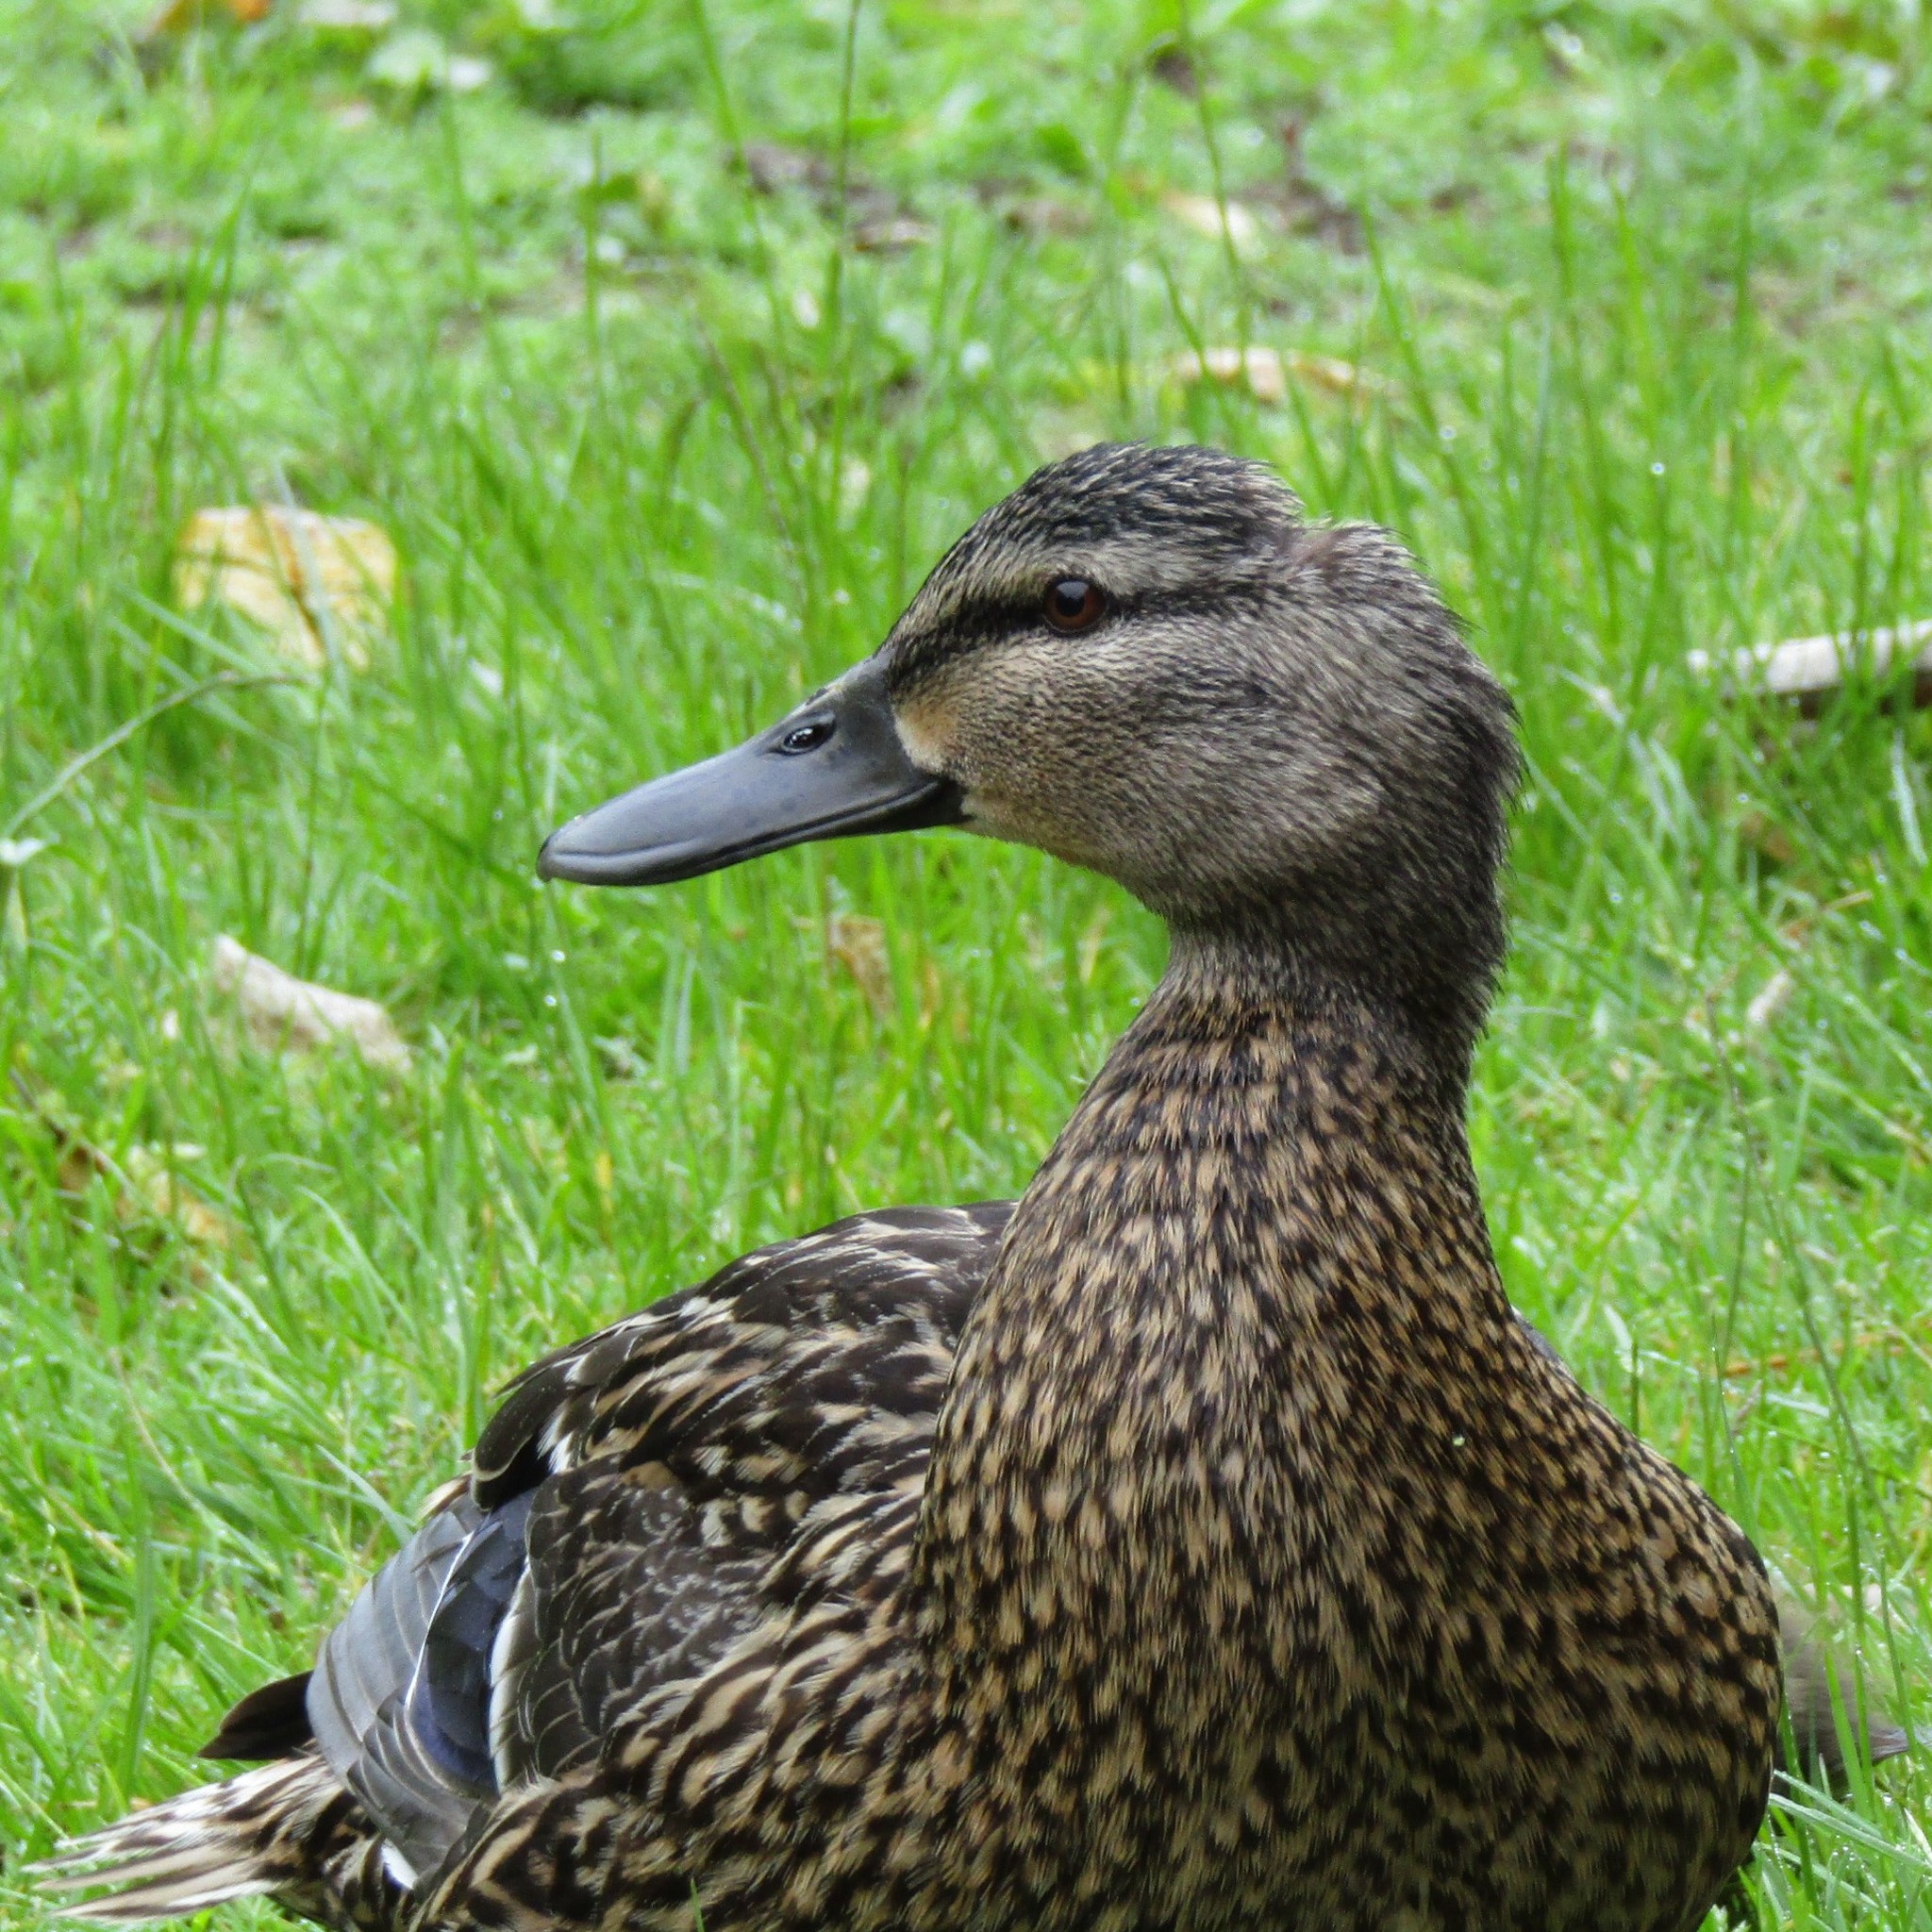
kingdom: Animalia
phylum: Chordata
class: Aves
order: Anseriformes
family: Anatidae
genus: Anas
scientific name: Anas
